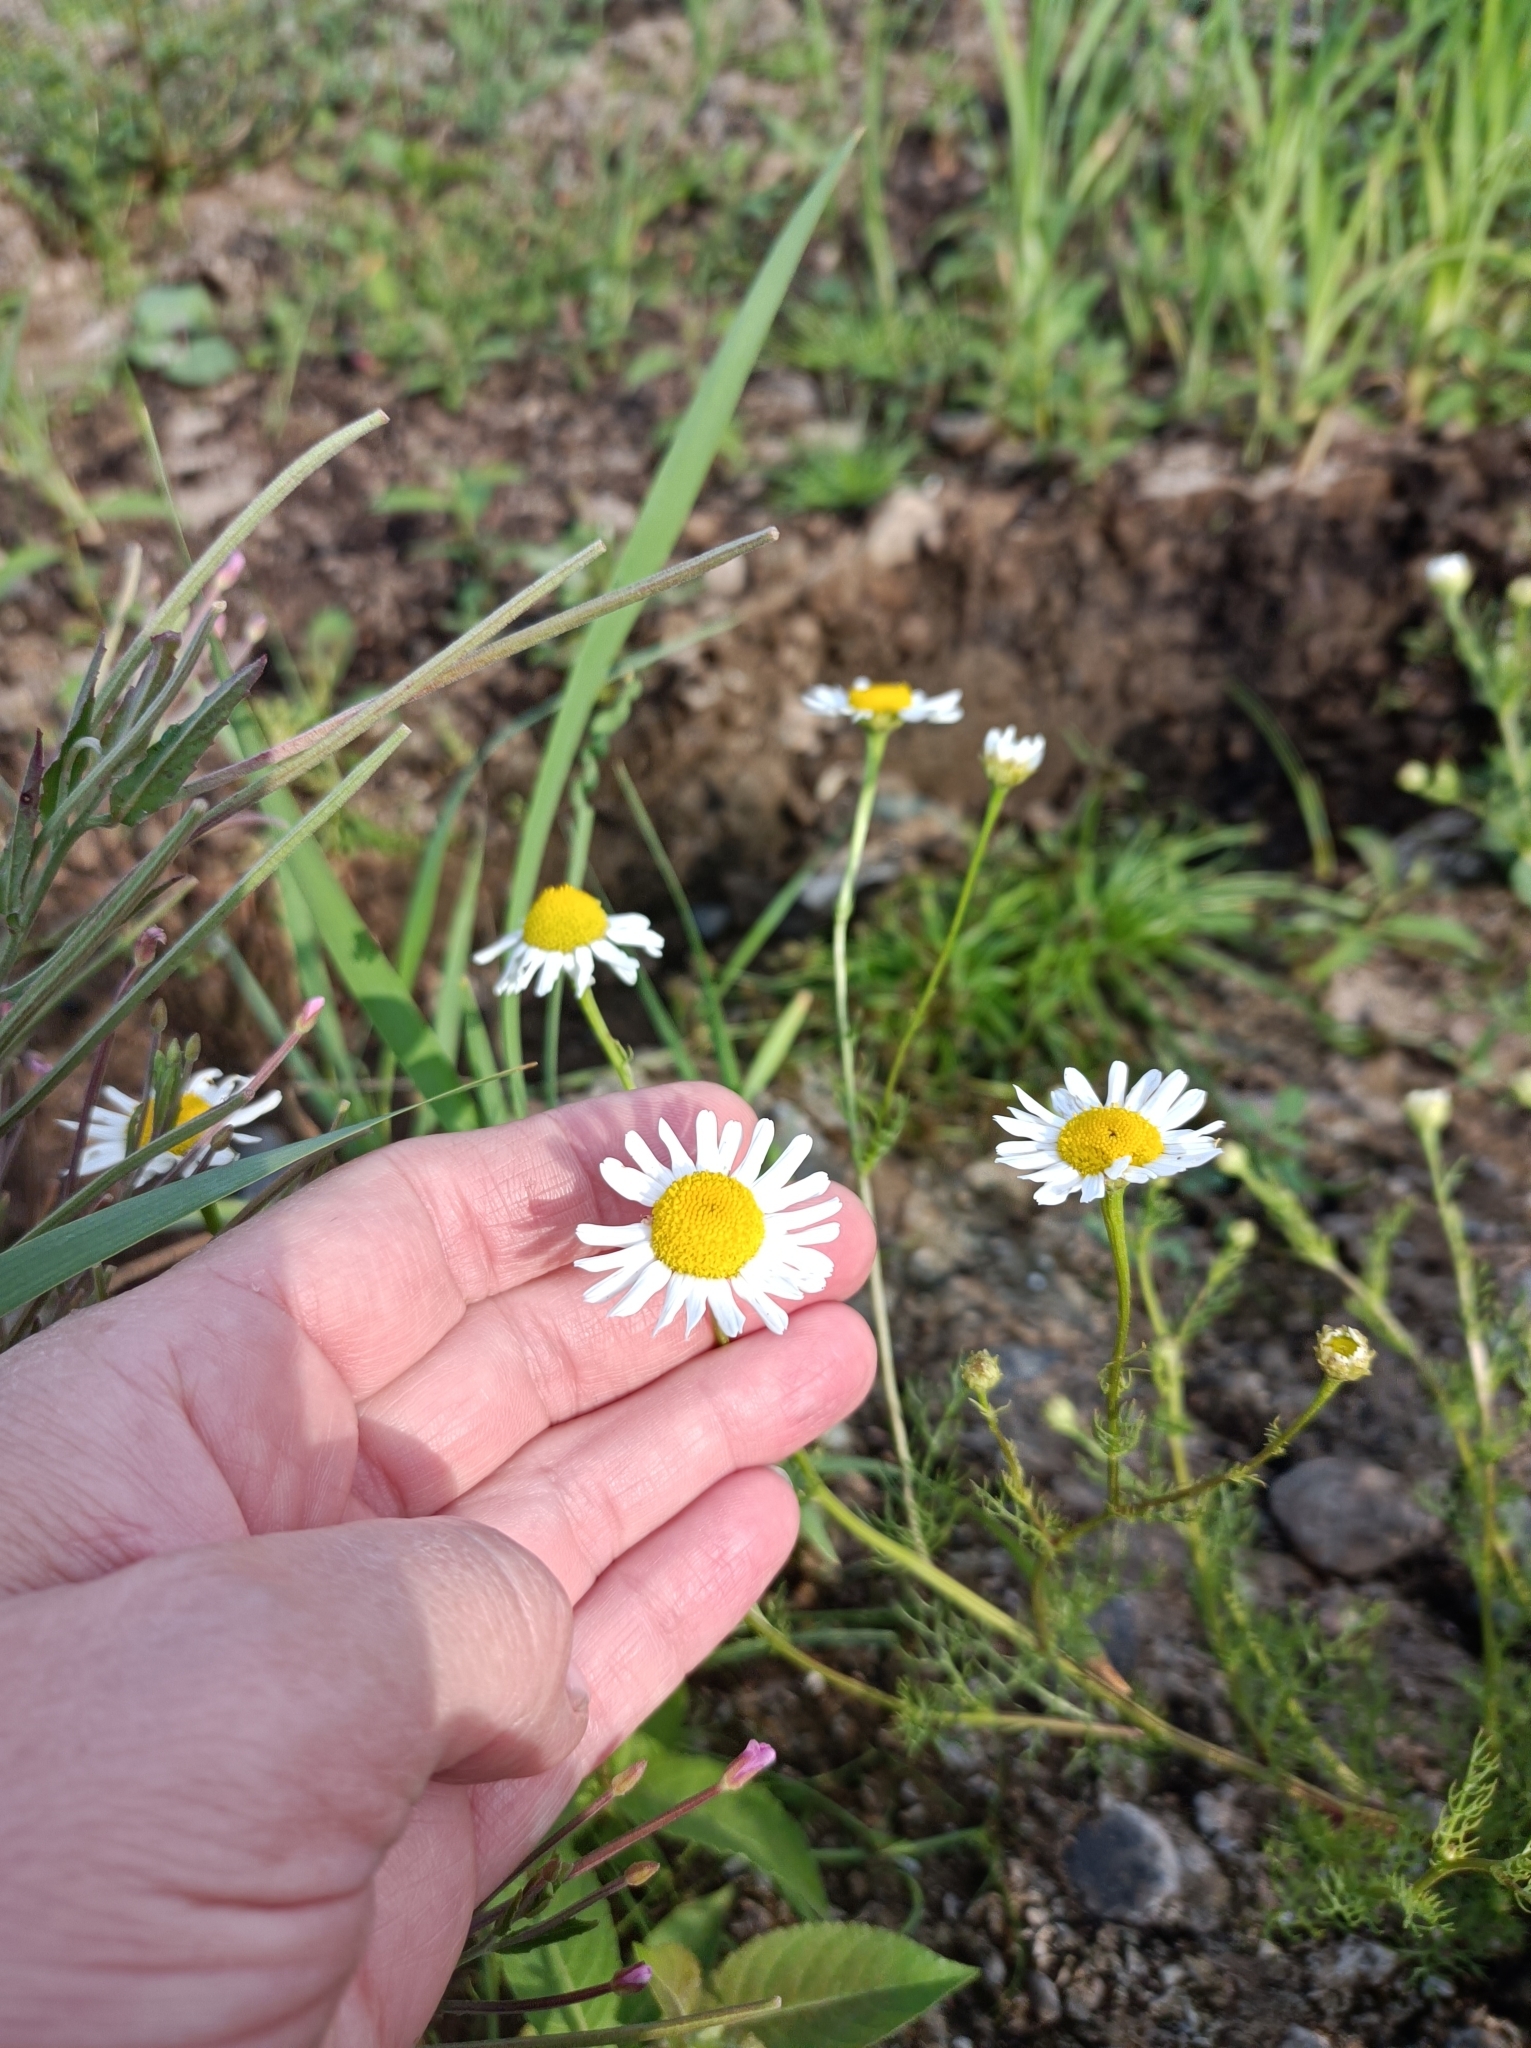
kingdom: Plantae
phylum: Tracheophyta
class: Magnoliopsida
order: Asterales
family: Asteraceae
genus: Tripleurospermum
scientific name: Tripleurospermum inodorum
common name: Scentless mayweed
